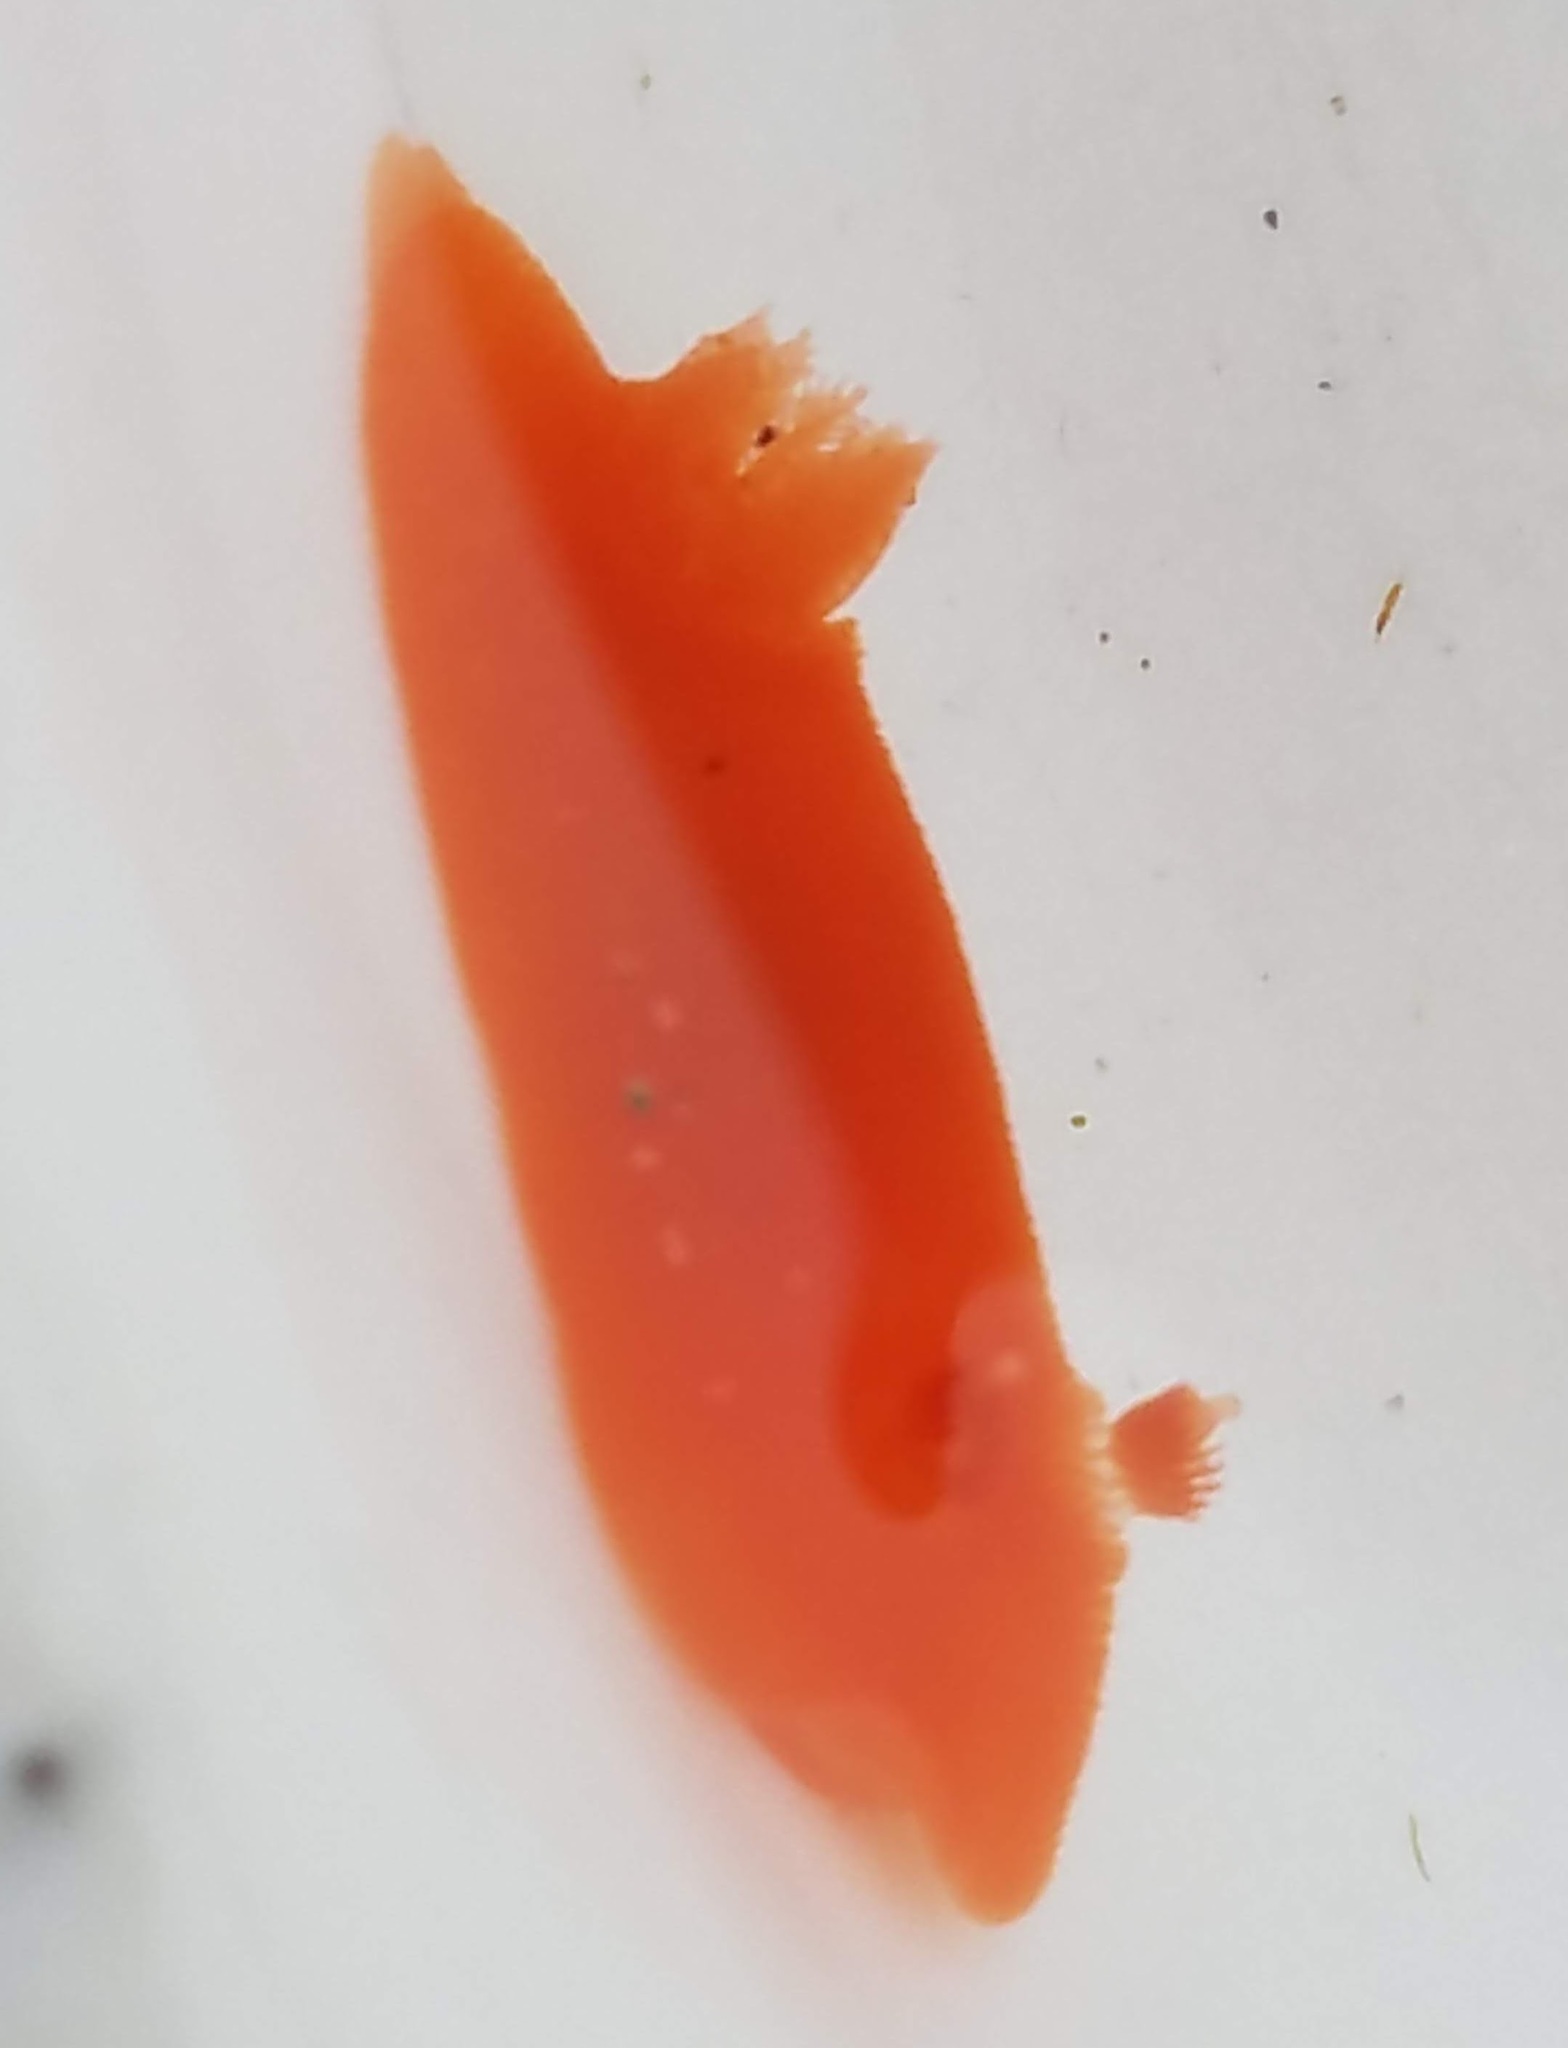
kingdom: Animalia
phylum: Mollusca
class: Gastropoda
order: Nudibranchia
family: Discodorididae
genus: Rostanga
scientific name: Rostanga pulchra
